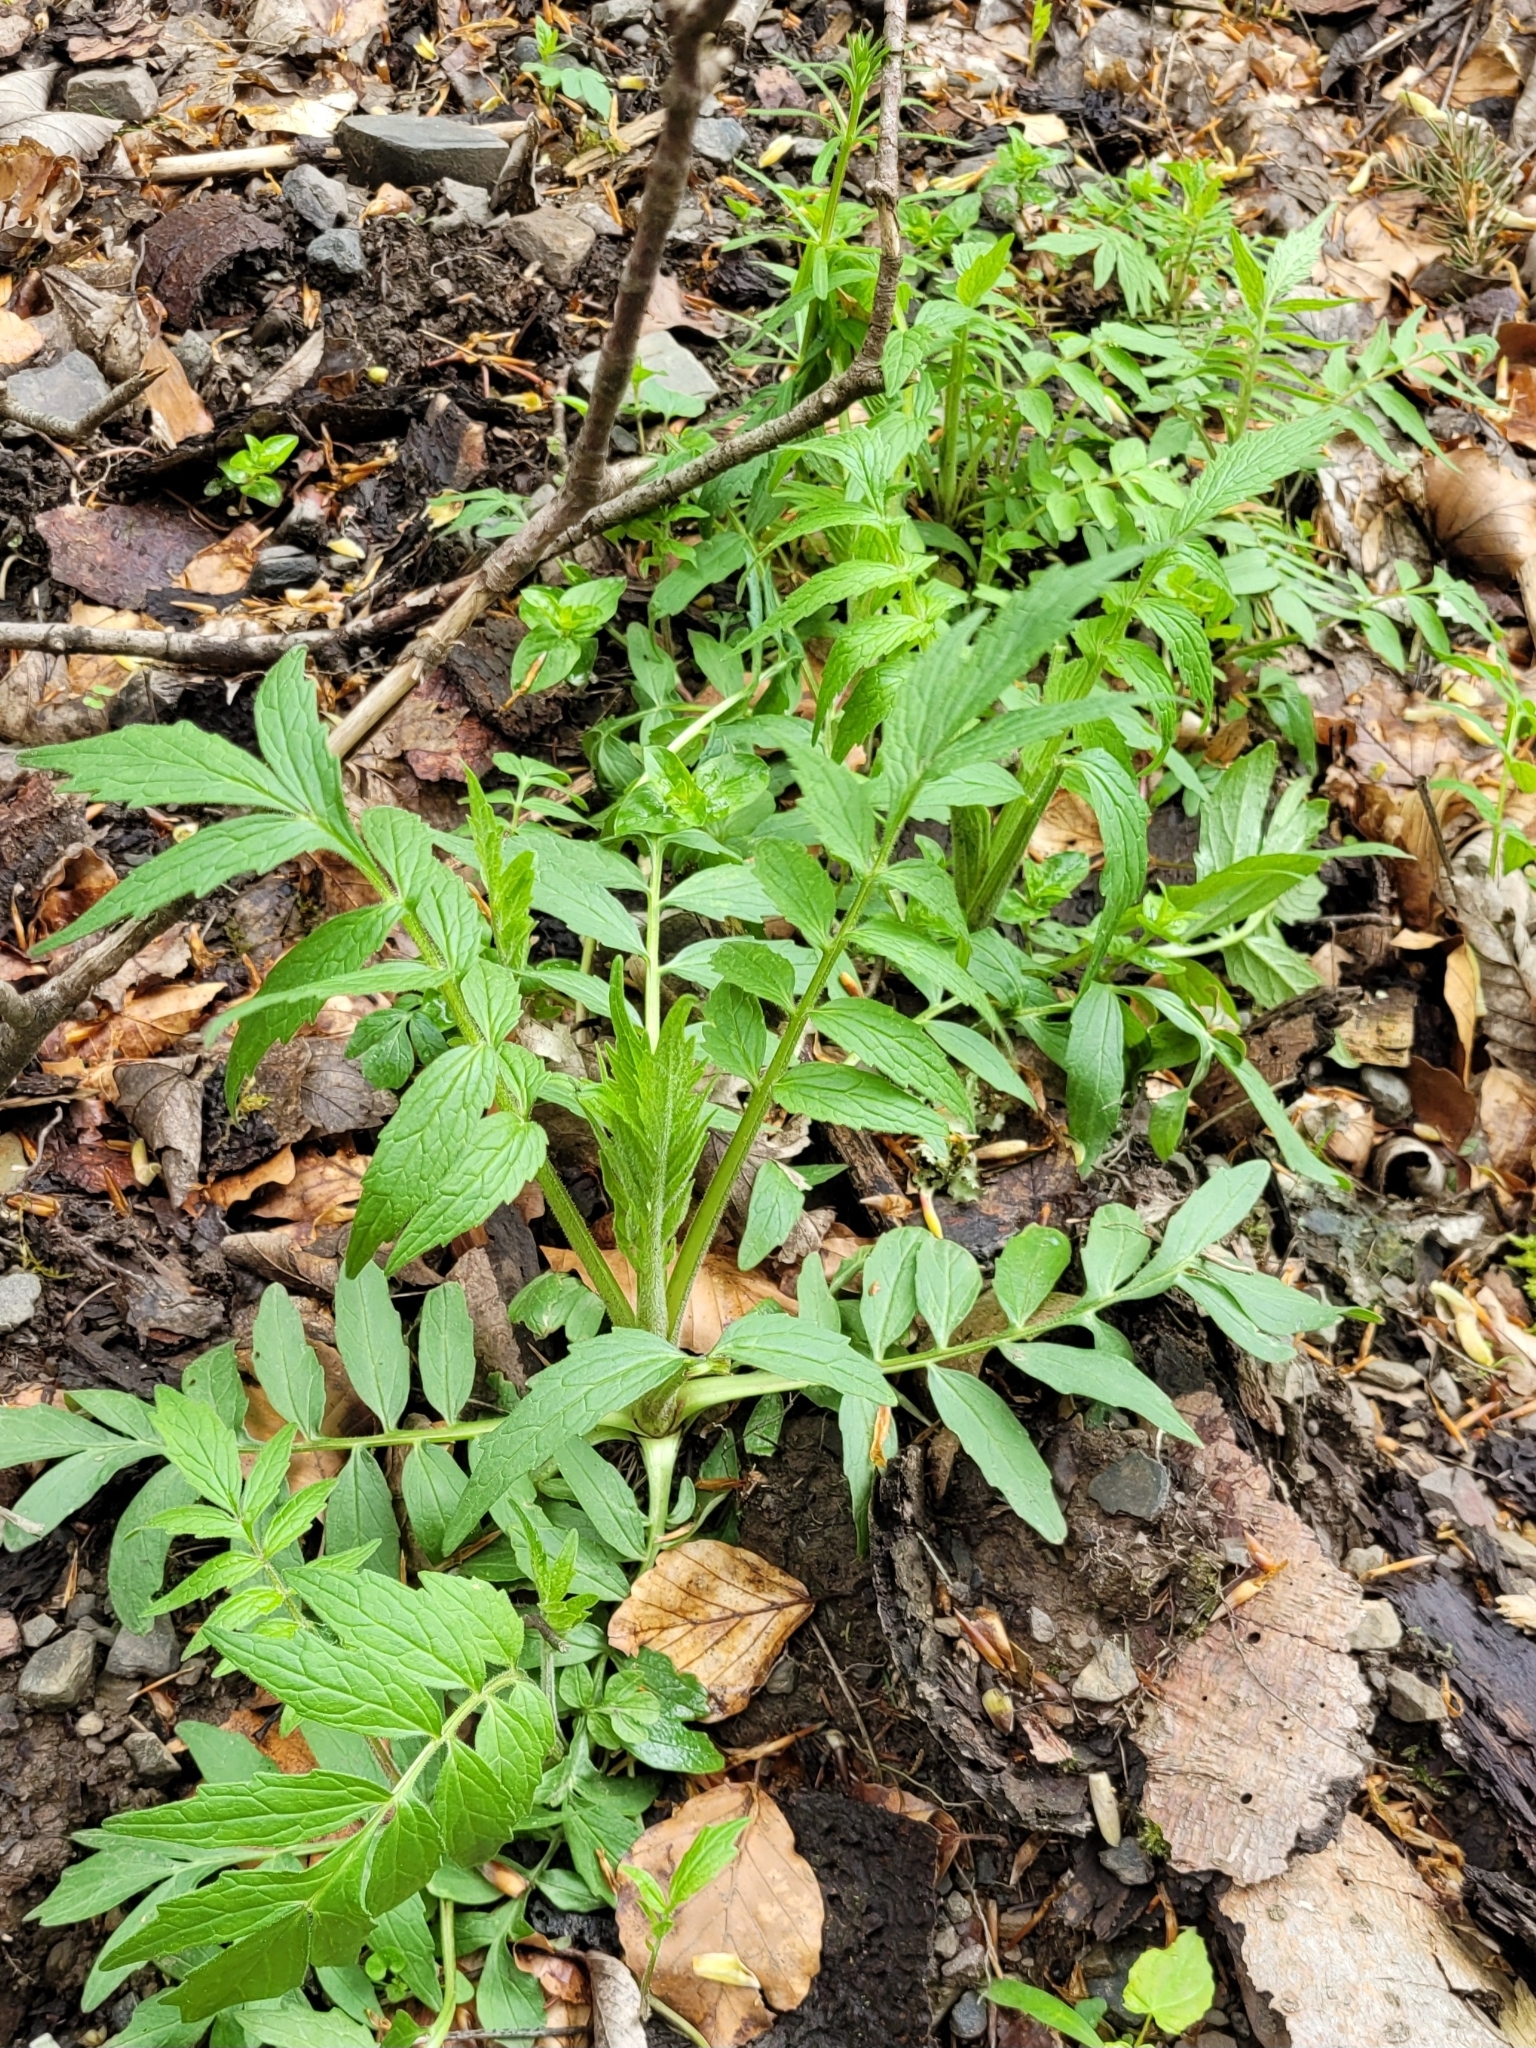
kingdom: Plantae
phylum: Tracheophyta
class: Magnoliopsida
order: Dipsacales
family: Caprifoliaceae
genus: Valeriana
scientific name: Valeriana officinalis
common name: Common valerian
